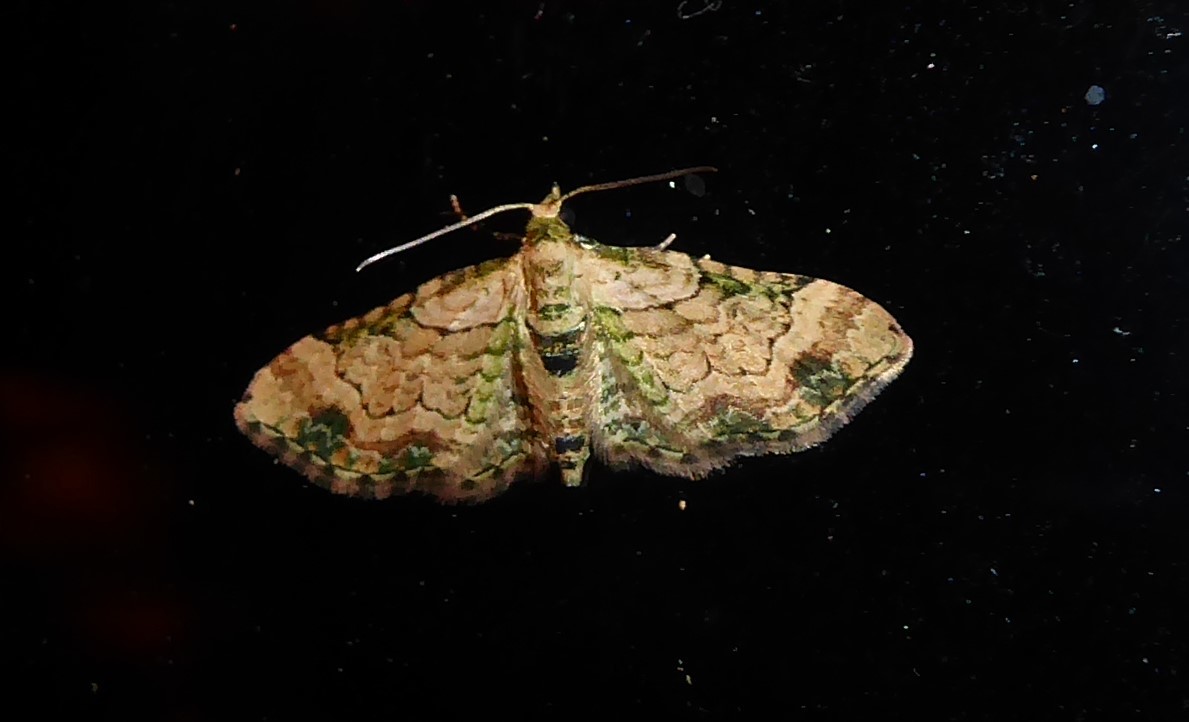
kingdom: Animalia
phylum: Arthropoda
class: Insecta
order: Lepidoptera
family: Geometridae
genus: Chloroclystis
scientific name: Chloroclystis
